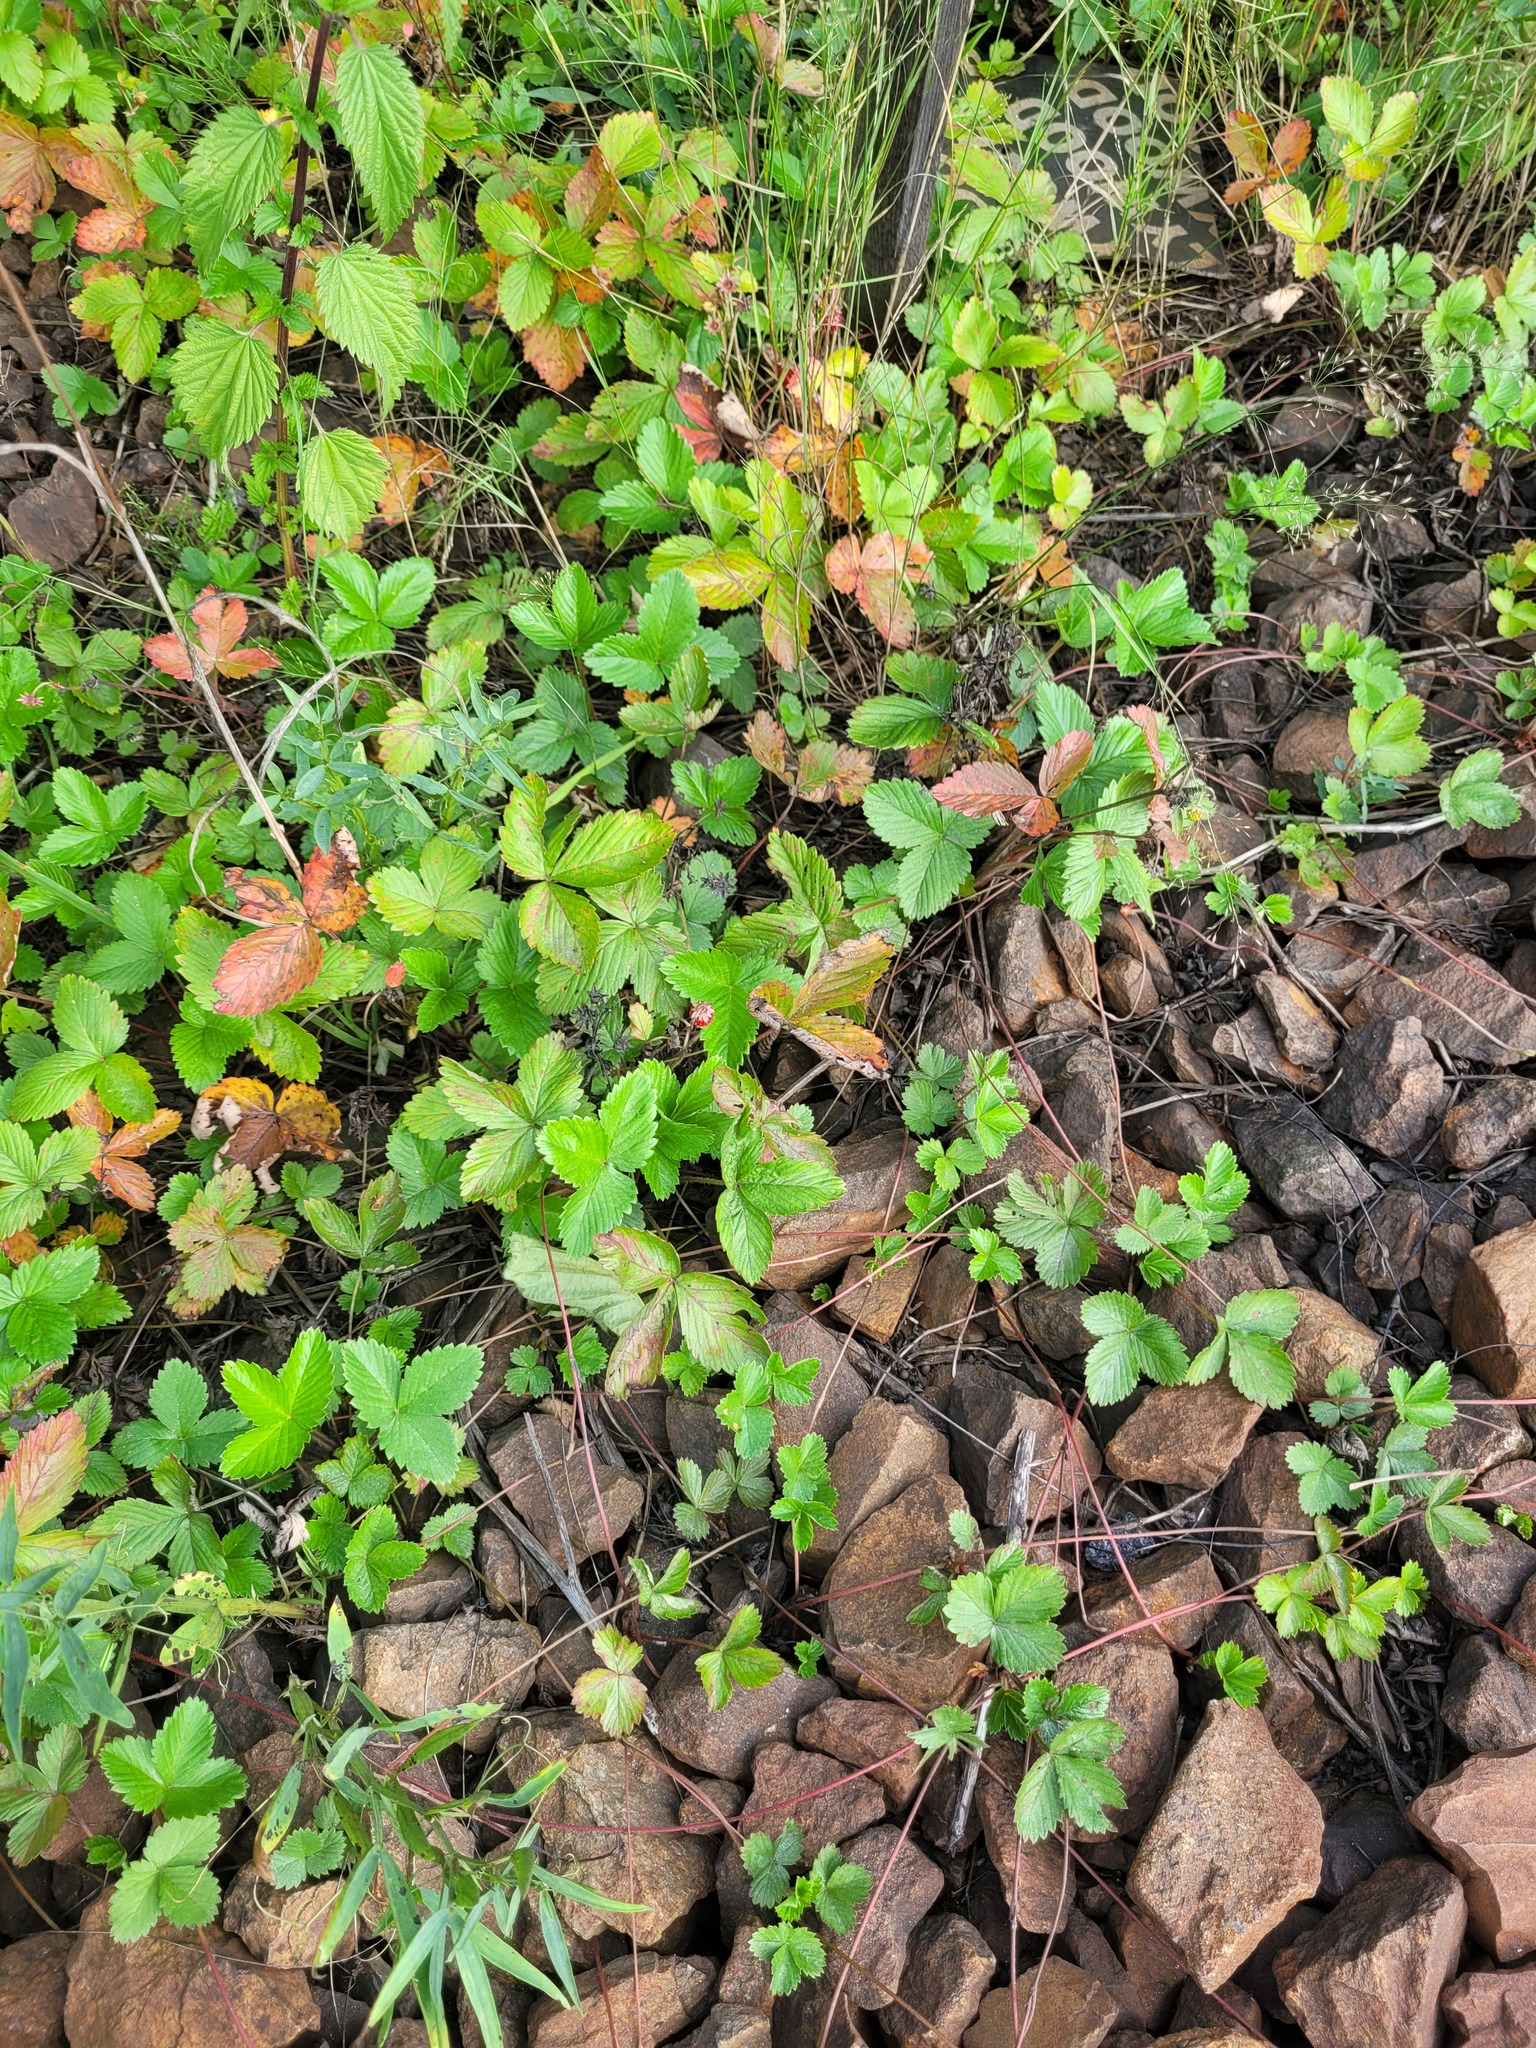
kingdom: Plantae
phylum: Tracheophyta
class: Magnoliopsida
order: Rosales
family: Rosaceae
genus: Fragaria
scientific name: Fragaria vesca
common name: Wild strawberry
